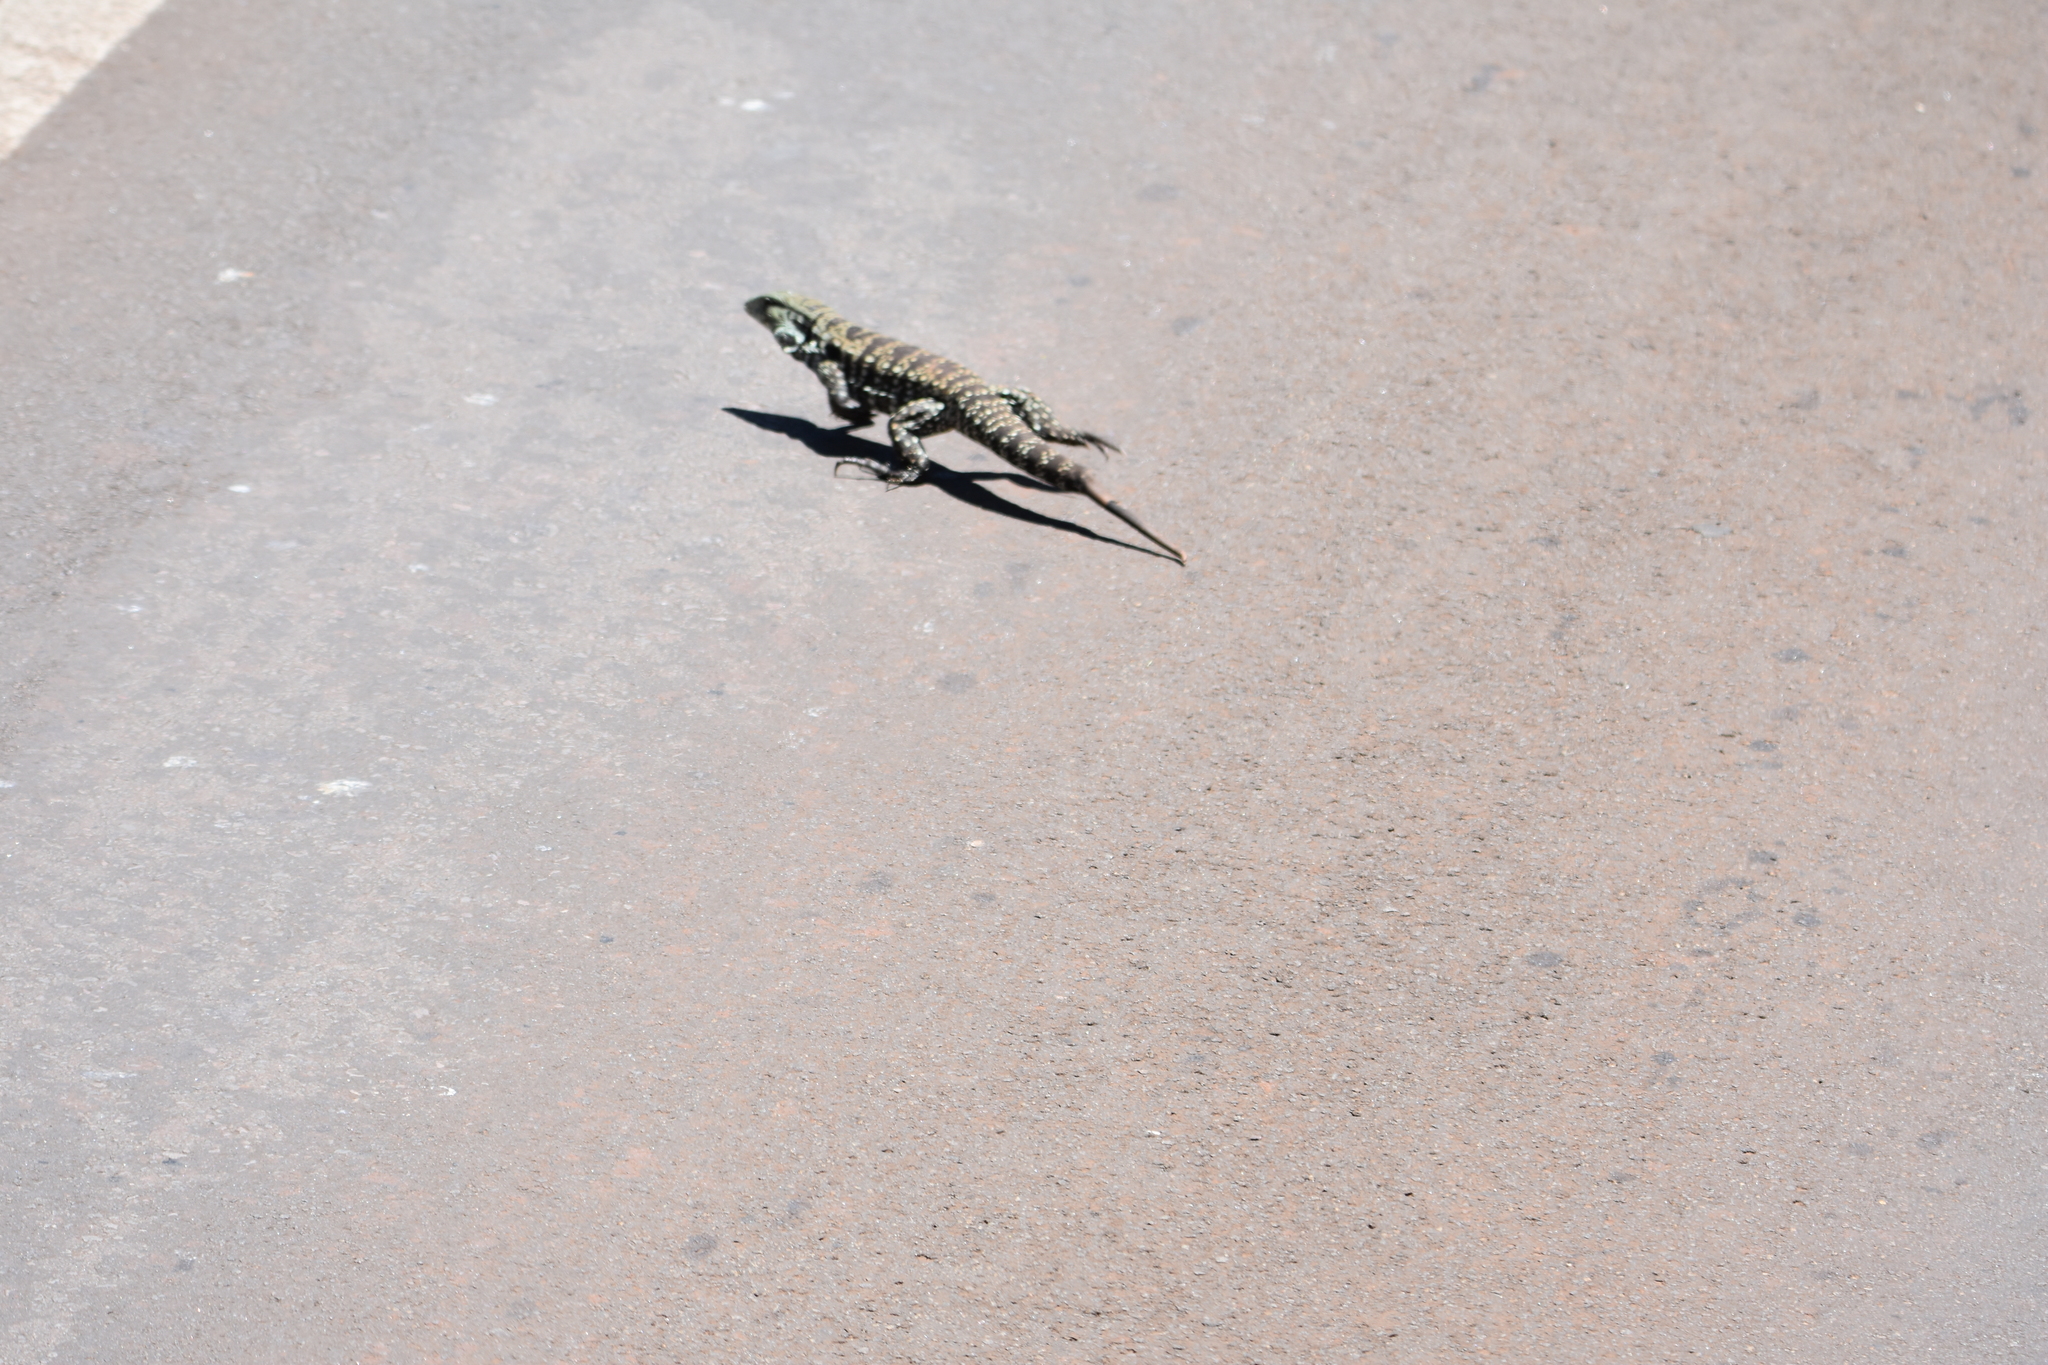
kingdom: Animalia
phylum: Chordata
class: Squamata
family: Teiidae
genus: Salvator
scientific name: Salvator merianae
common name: Argentine black and white tegu
